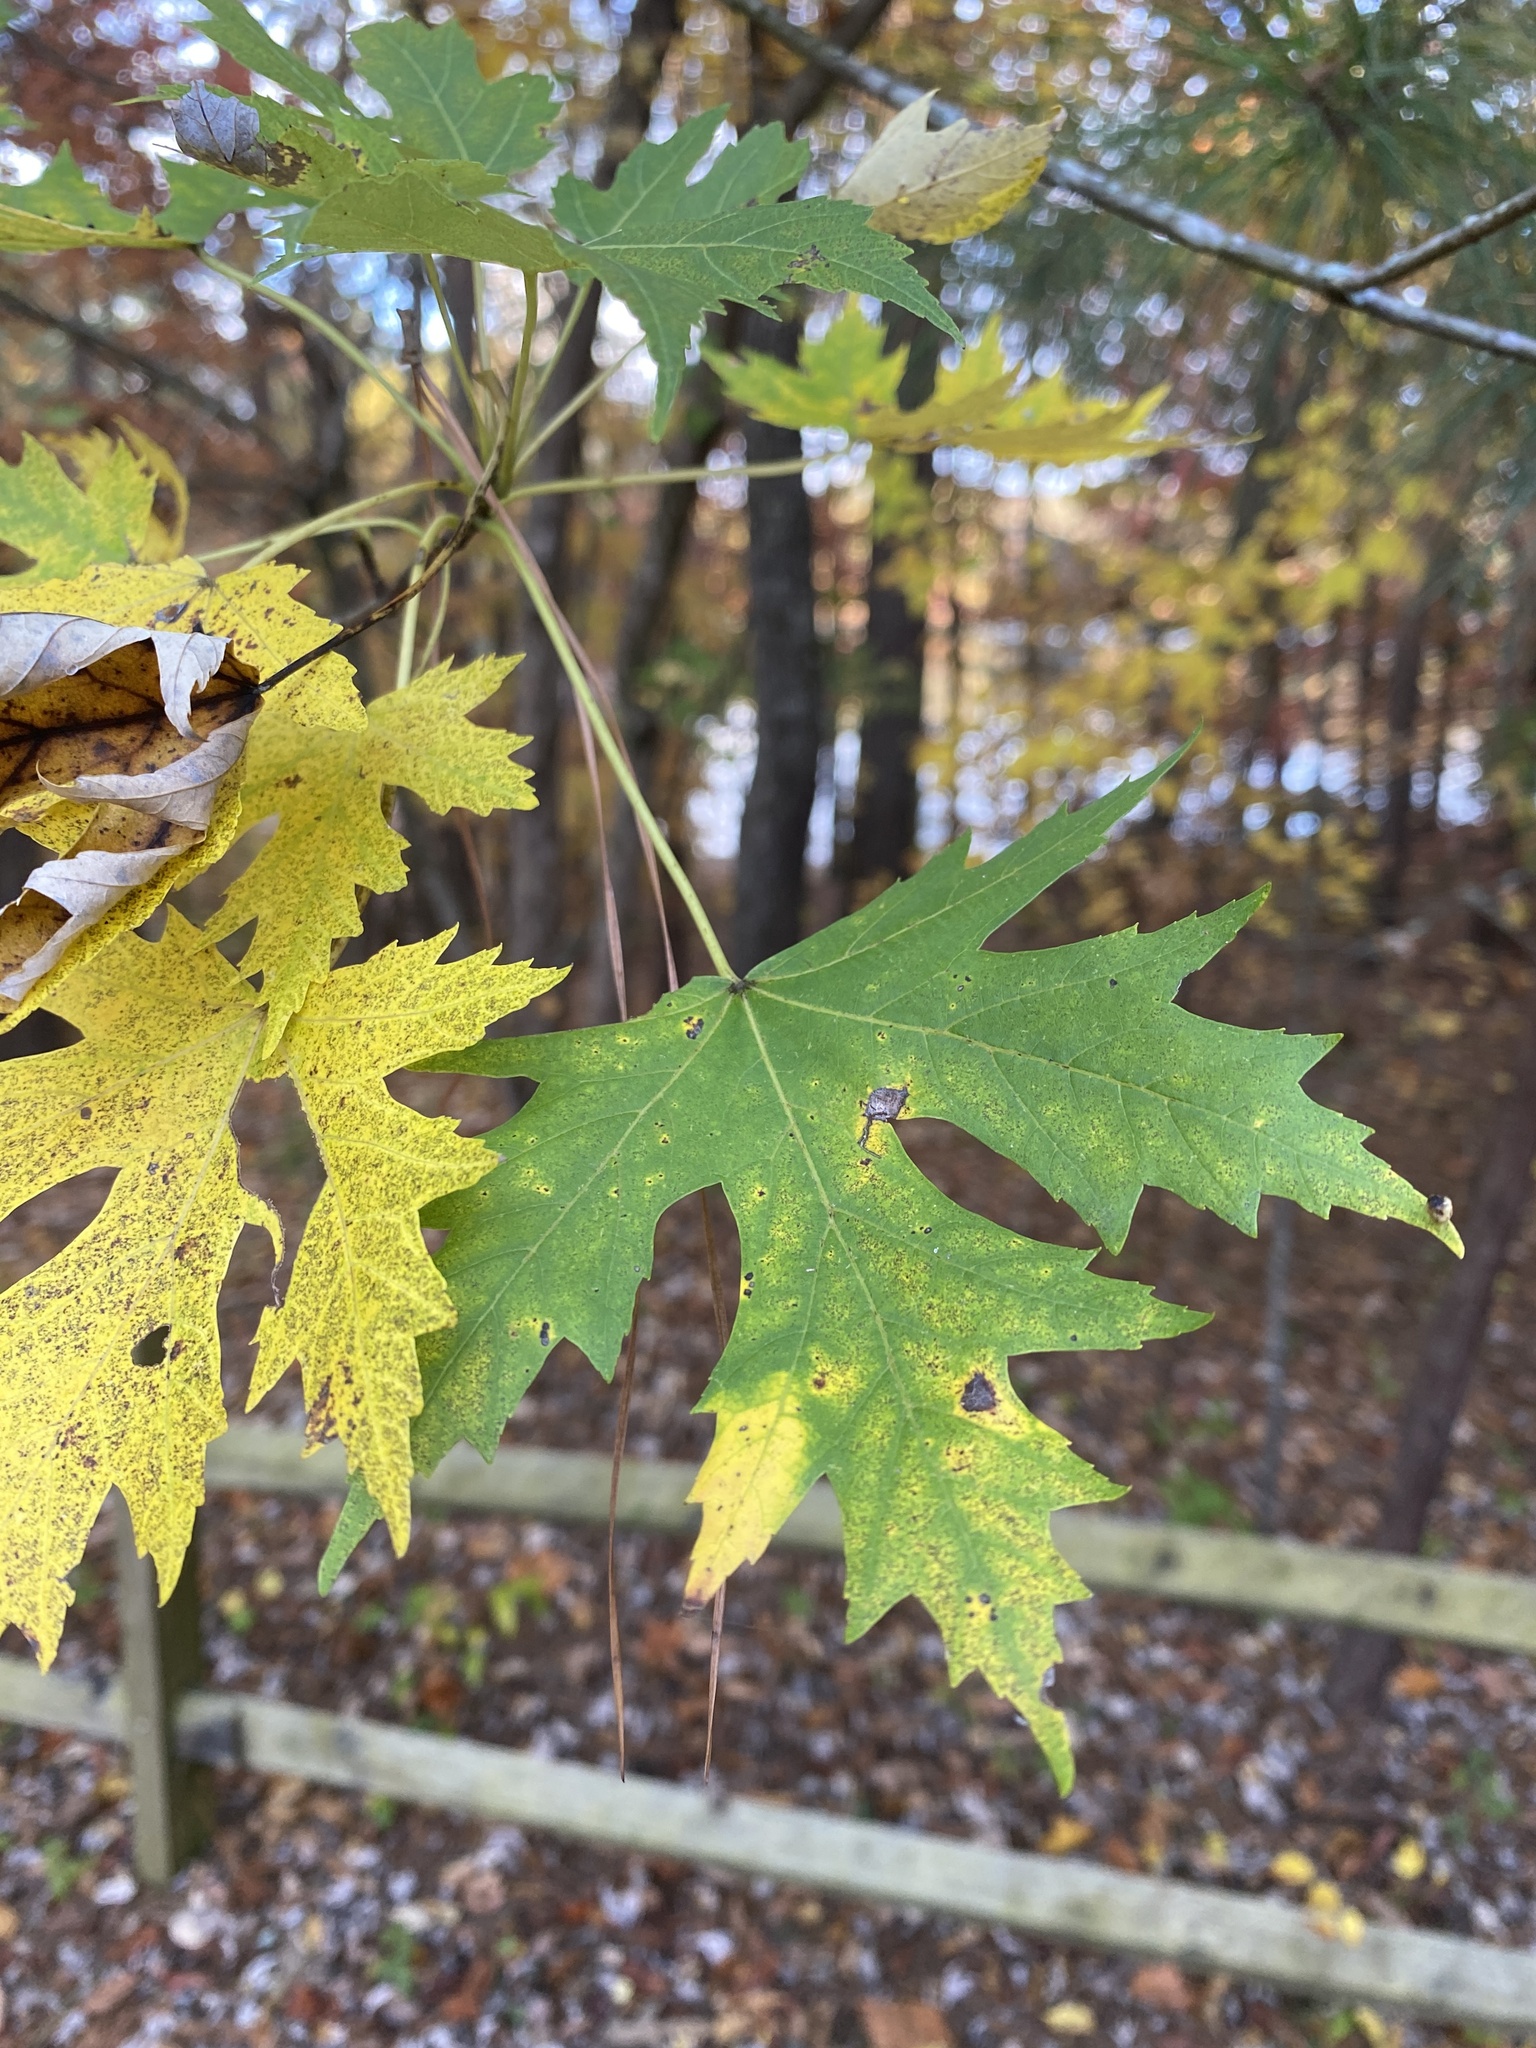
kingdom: Plantae
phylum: Tracheophyta
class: Magnoliopsida
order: Sapindales
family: Sapindaceae
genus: Acer
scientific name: Acer saccharinum
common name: Silver maple
